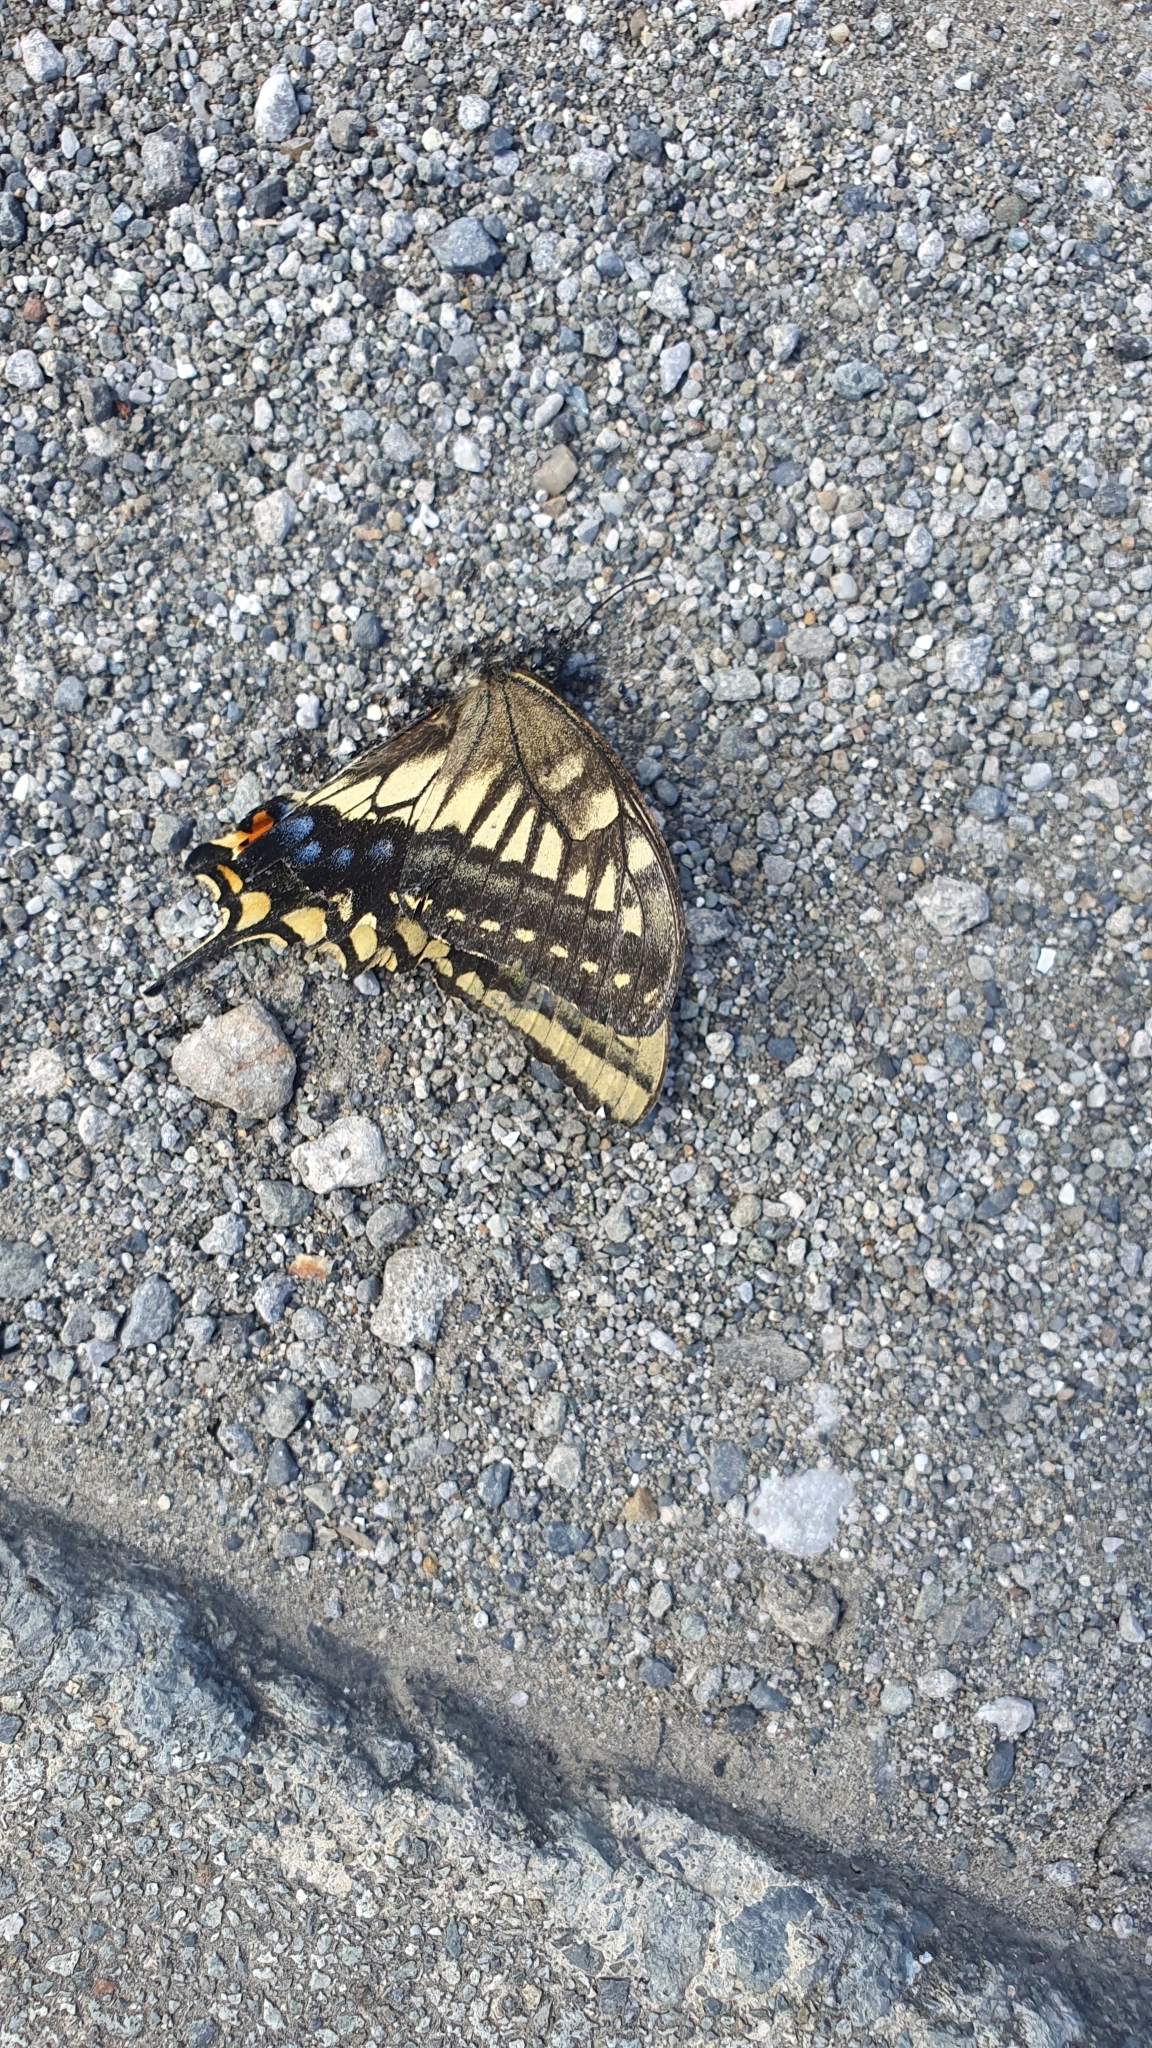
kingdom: Animalia
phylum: Arthropoda
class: Insecta
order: Lepidoptera
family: Papilionidae
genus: Papilio
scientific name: Papilio machaon
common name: Swallowtail
